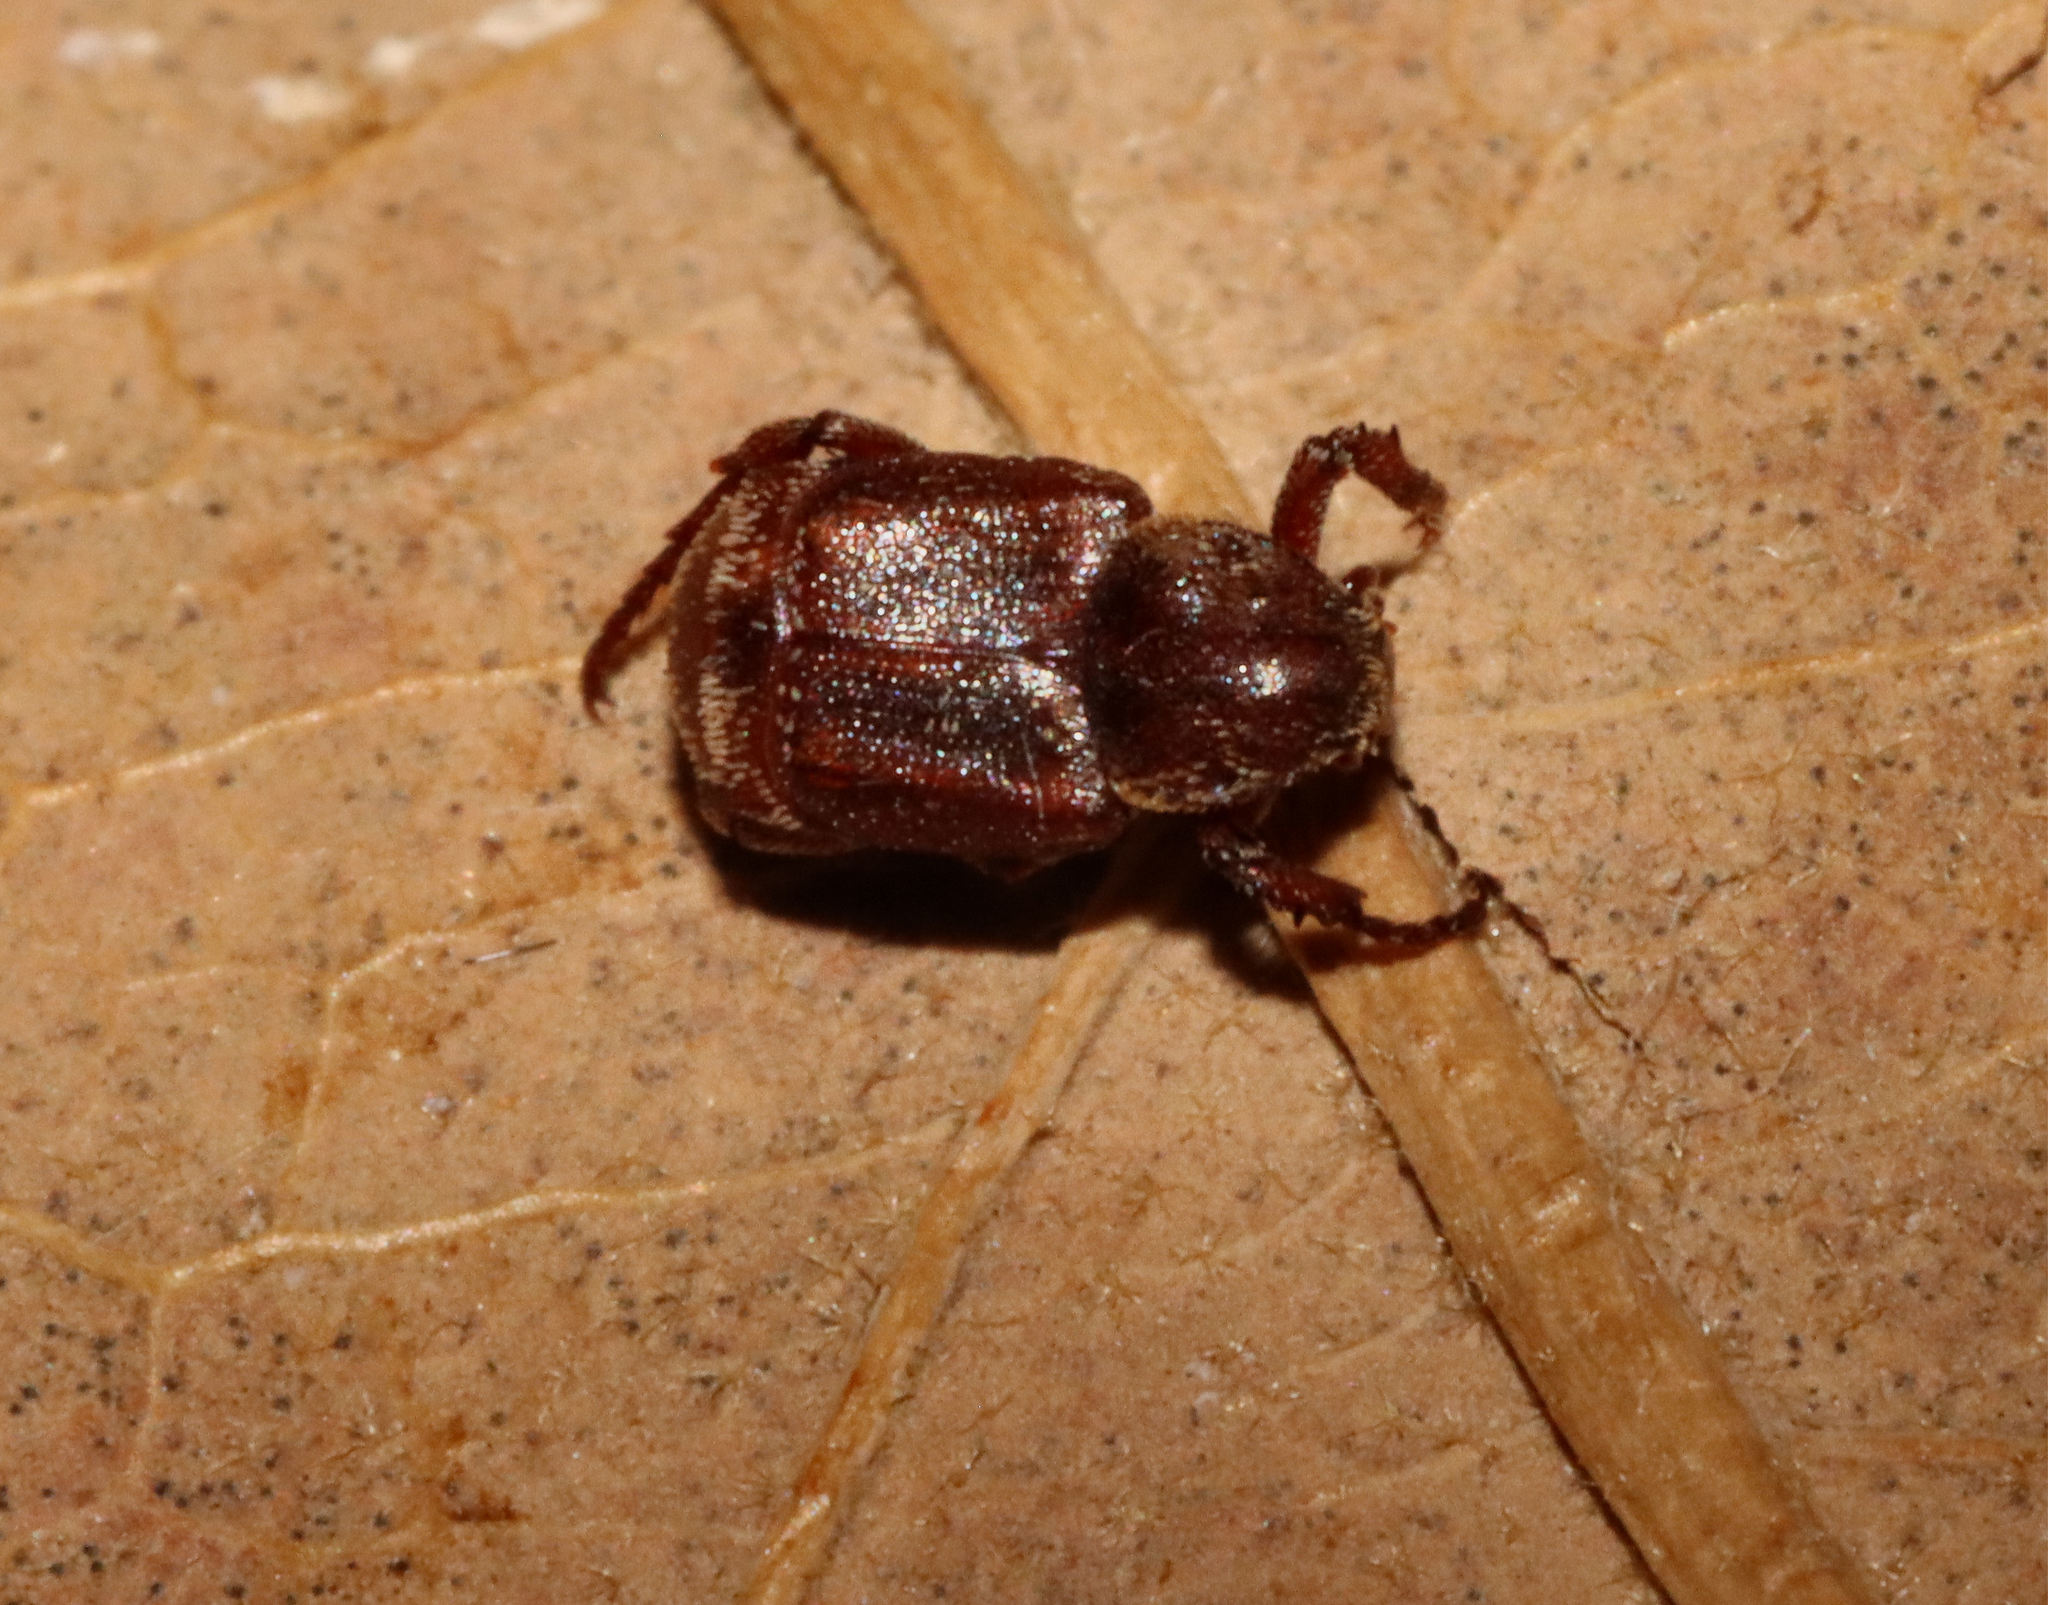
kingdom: Animalia
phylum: Arthropoda
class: Insecta
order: Coleoptera
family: Scarabaeidae
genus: Valgus
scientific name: Valgus canaliculatus
